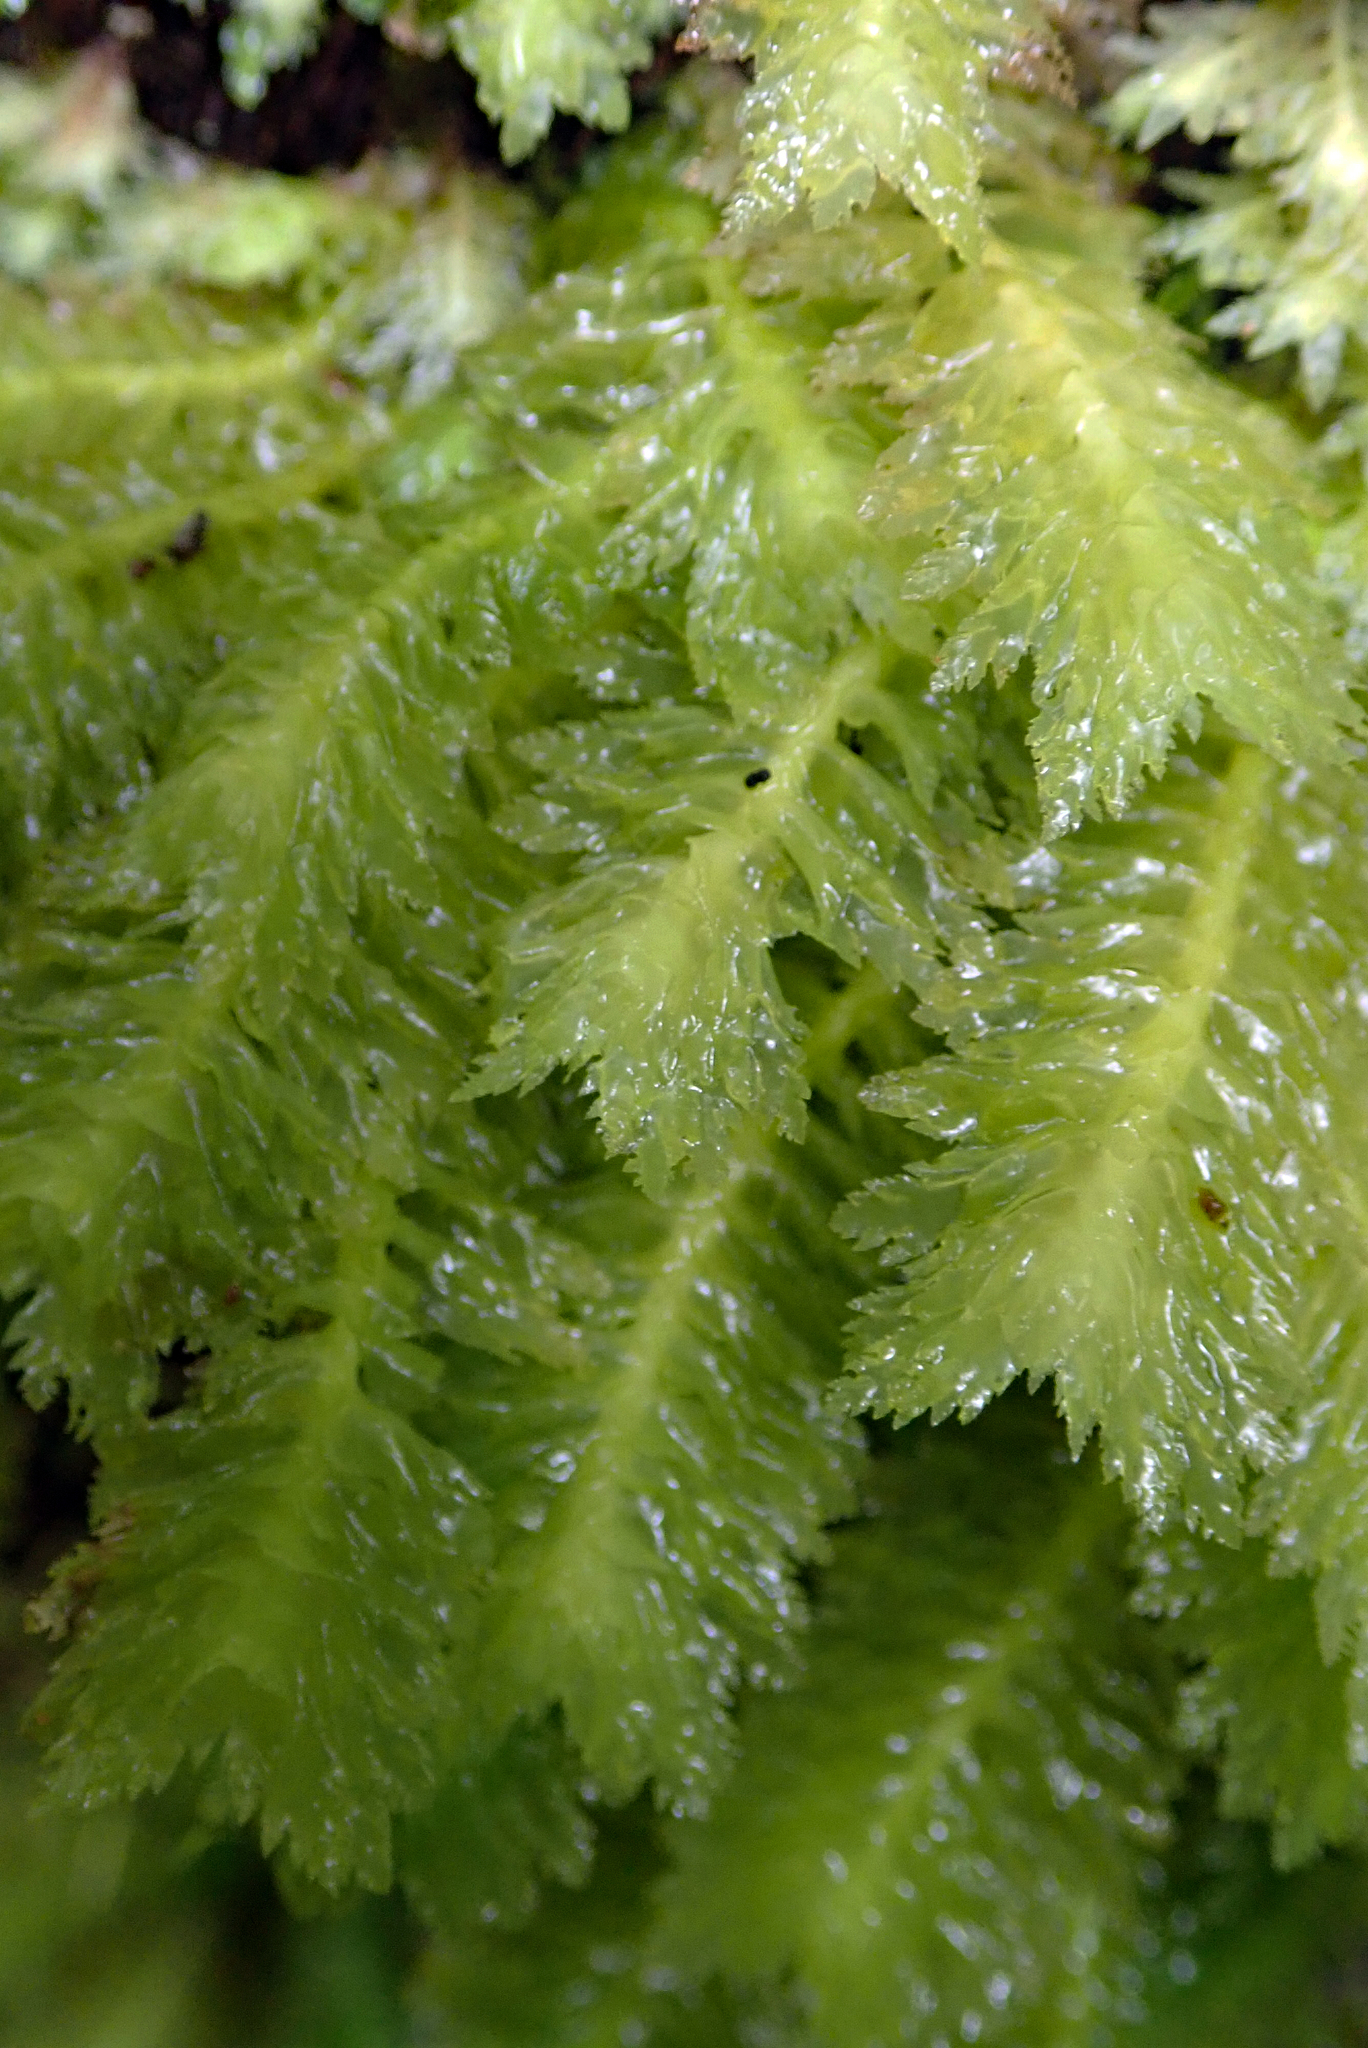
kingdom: Plantae
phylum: Marchantiophyta
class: Jungermanniopsida
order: Jungermanniales
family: Schistochilaceae
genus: Schistochila
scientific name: Schistochila repleta
